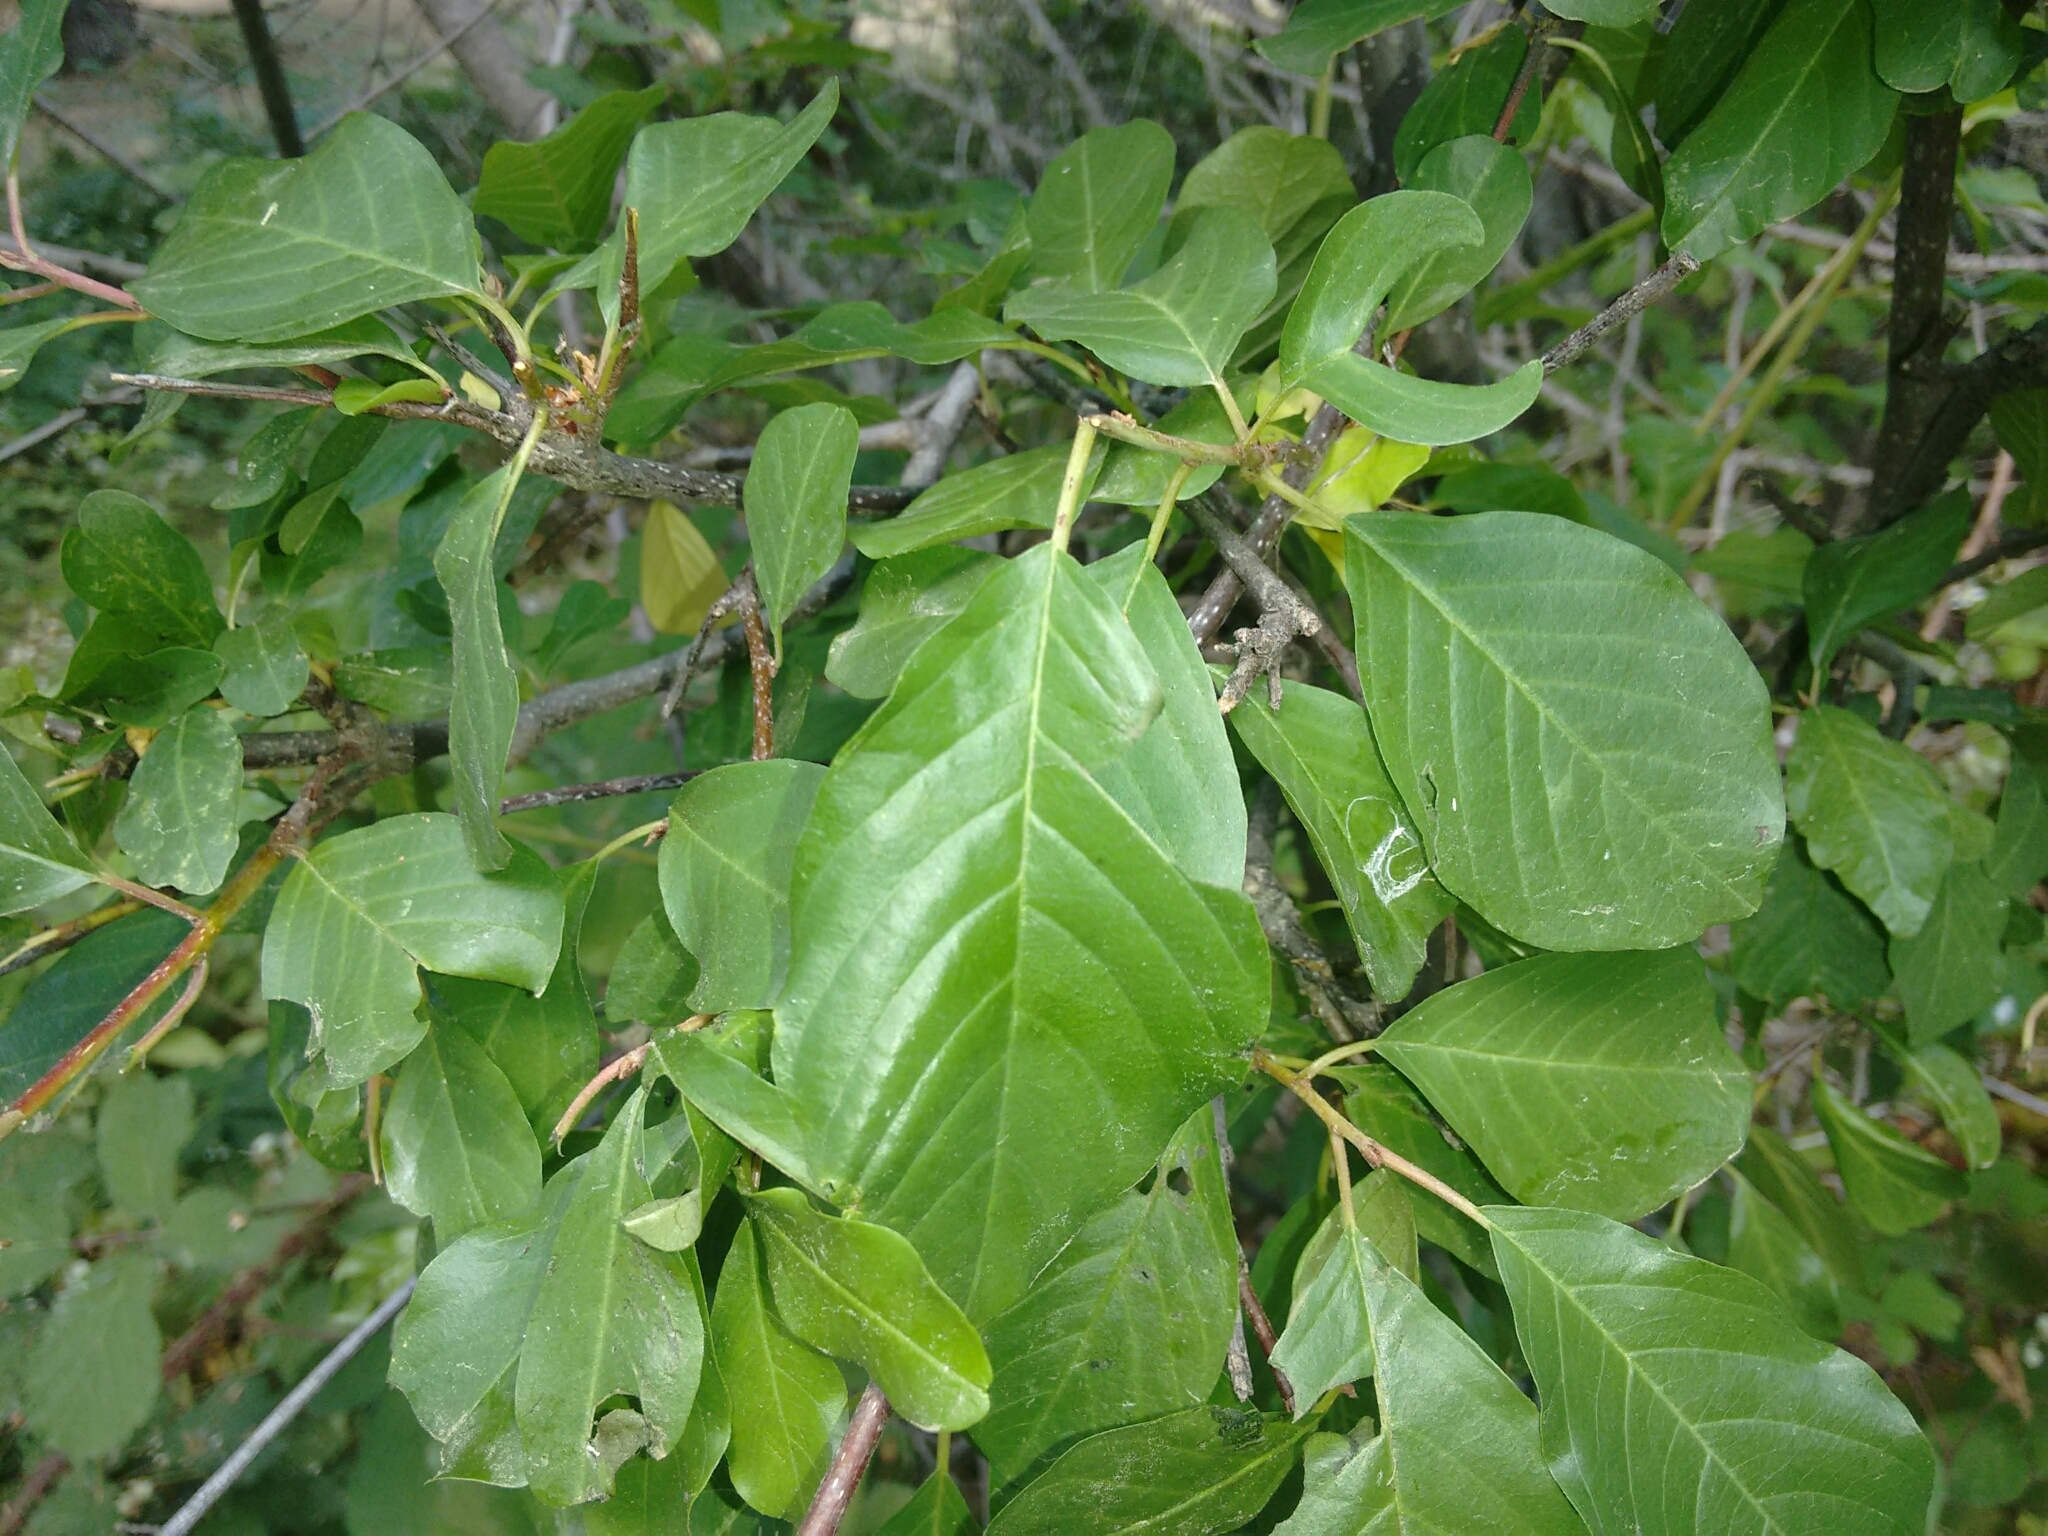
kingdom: Plantae
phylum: Tracheophyta
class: Magnoliopsida
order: Rosales
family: Rhamnaceae
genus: Frangula
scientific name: Frangula alnus
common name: Alder buckthorn
